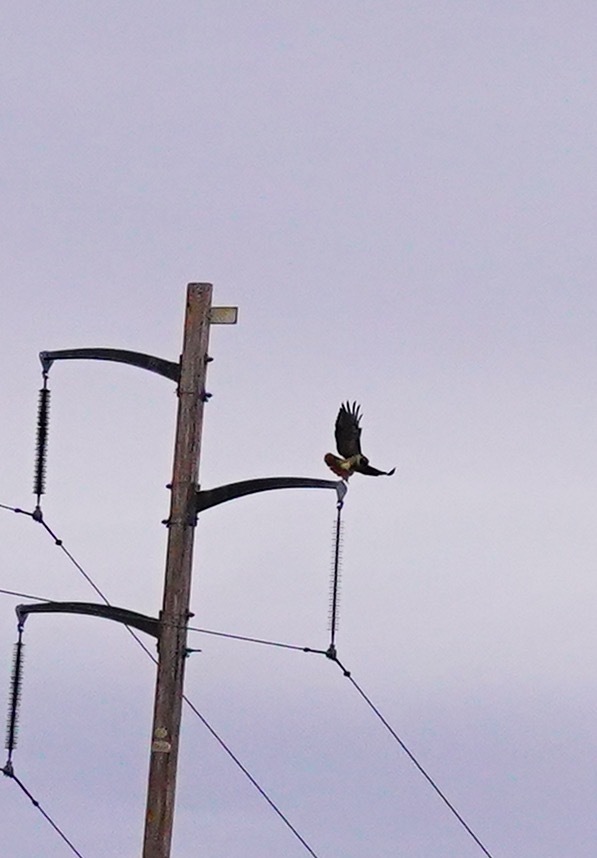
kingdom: Animalia
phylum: Chordata
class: Aves
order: Accipitriformes
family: Accipitridae
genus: Buteo
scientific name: Buteo jamaicensis
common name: Red-tailed hawk
